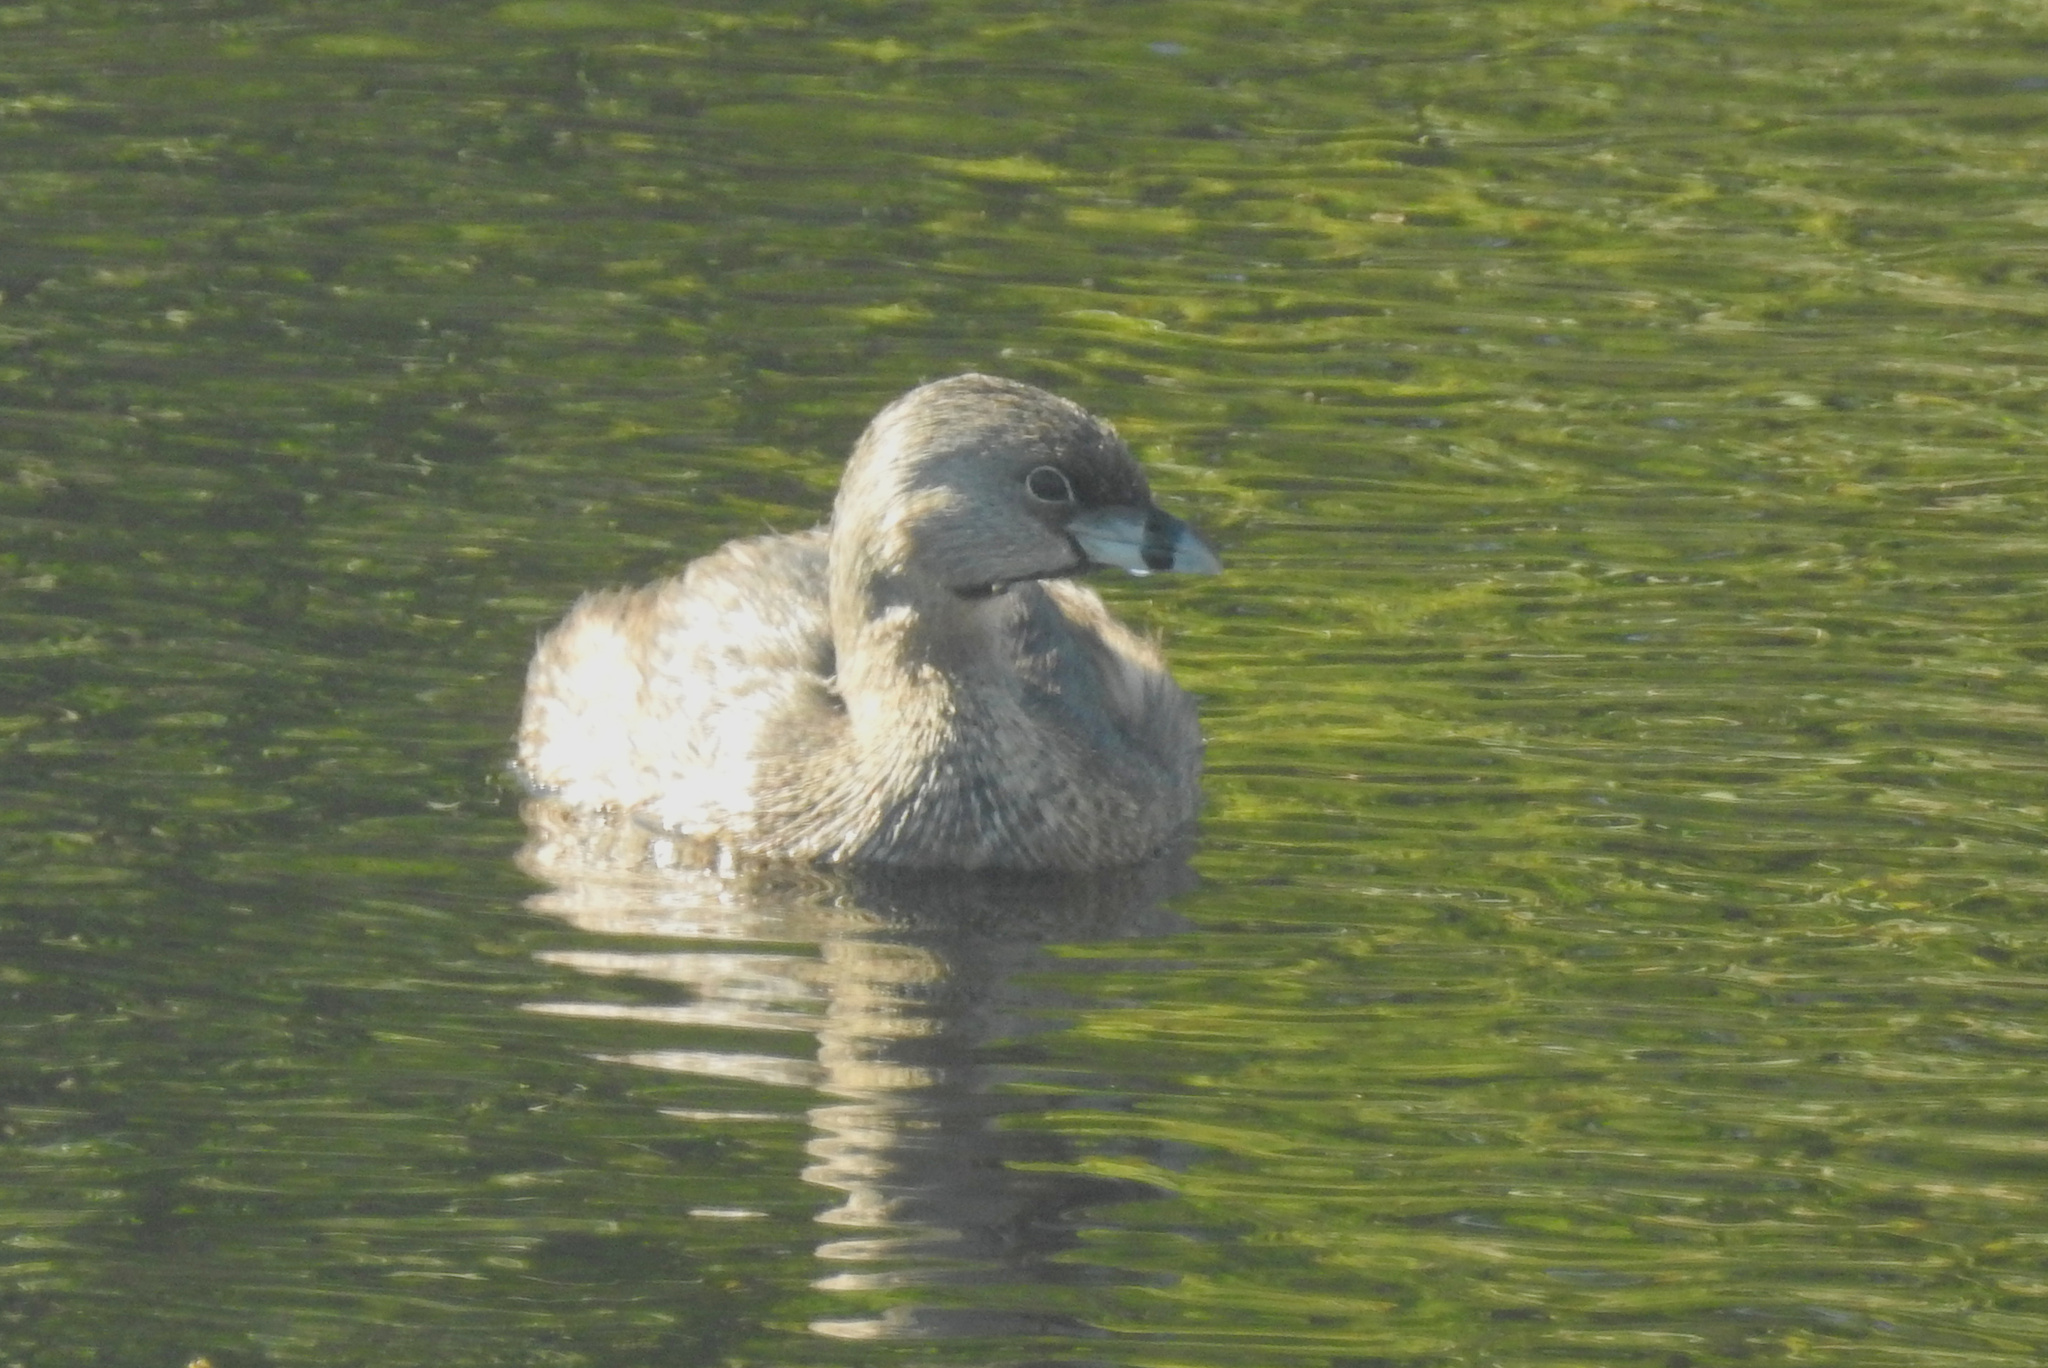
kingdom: Animalia
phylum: Chordata
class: Aves
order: Podicipediformes
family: Podicipedidae
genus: Podilymbus
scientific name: Podilymbus podiceps
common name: Pied-billed grebe
